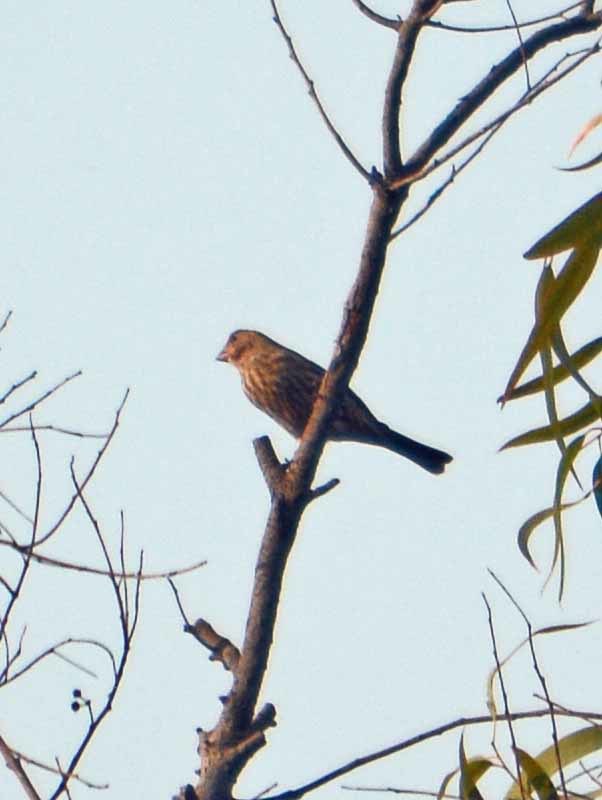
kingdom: Animalia
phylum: Chordata
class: Aves
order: Passeriformes
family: Fringillidae
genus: Haemorhous
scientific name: Haemorhous mexicanus
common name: House finch
